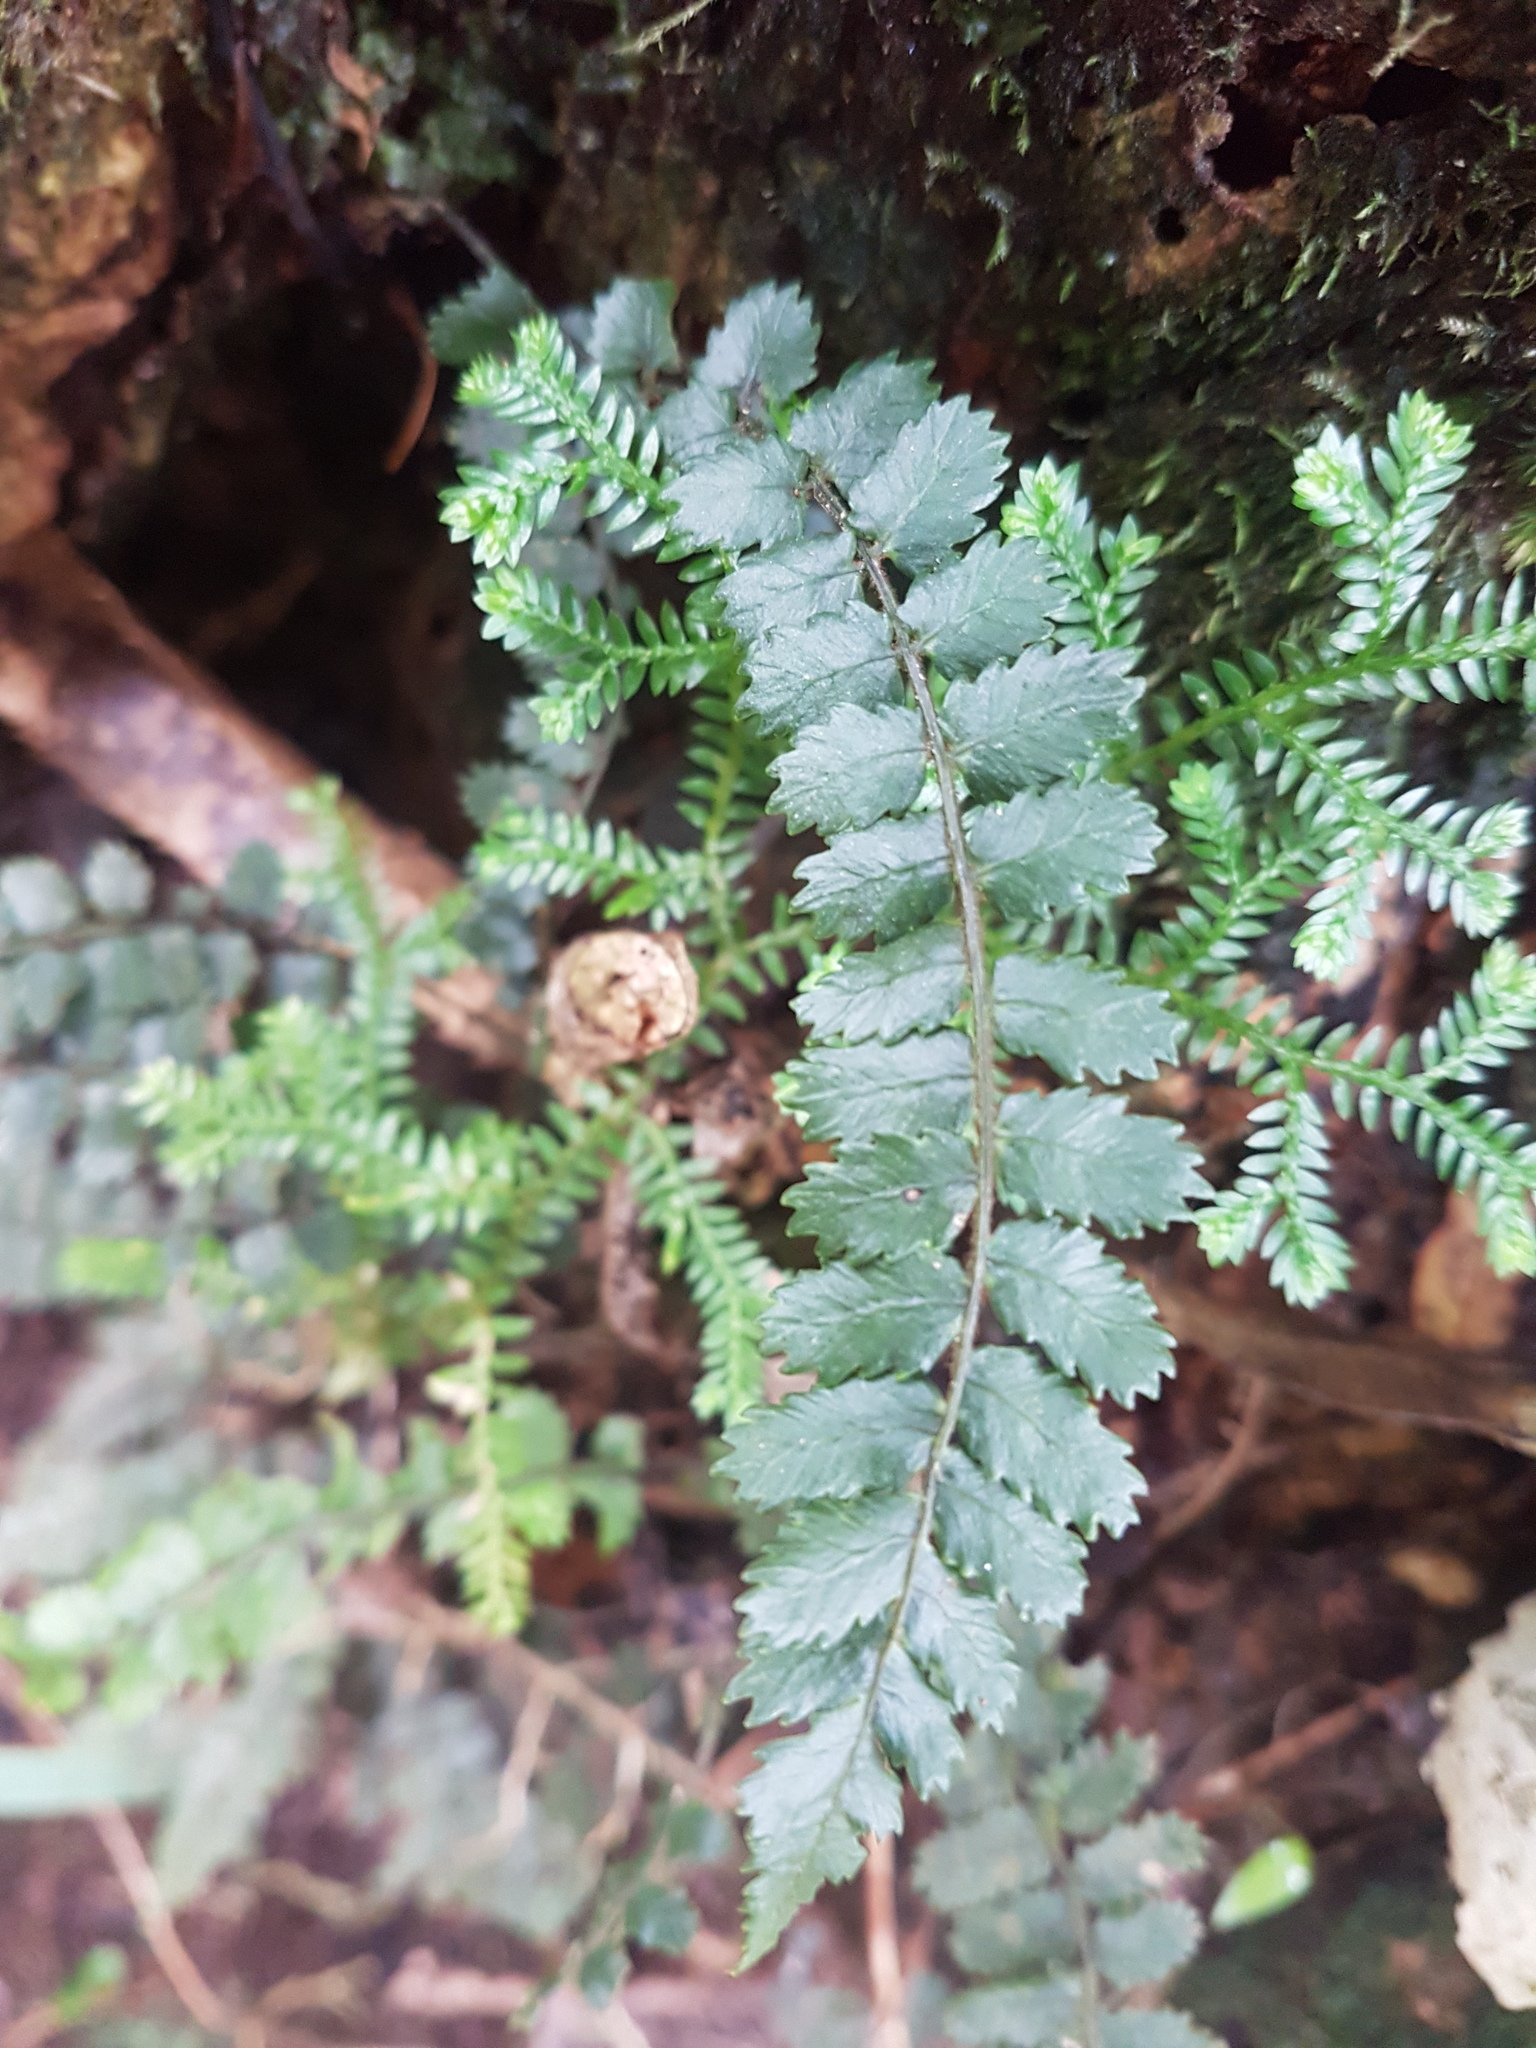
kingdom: Plantae
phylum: Tracheophyta
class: Polypodiopsida
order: Polypodiales
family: Blechnaceae
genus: Icarus
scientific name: Icarus filiformis
